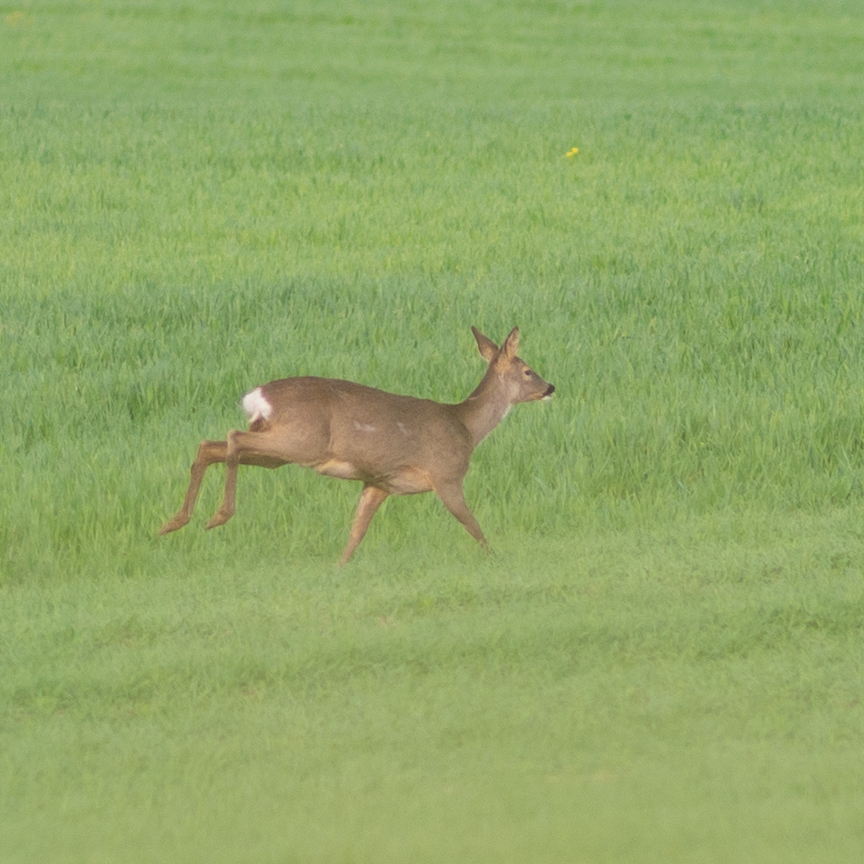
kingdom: Animalia
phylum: Chordata
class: Mammalia
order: Artiodactyla
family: Cervidae
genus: Capreolus
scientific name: Capreolus capreolus
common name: Western roe deer
